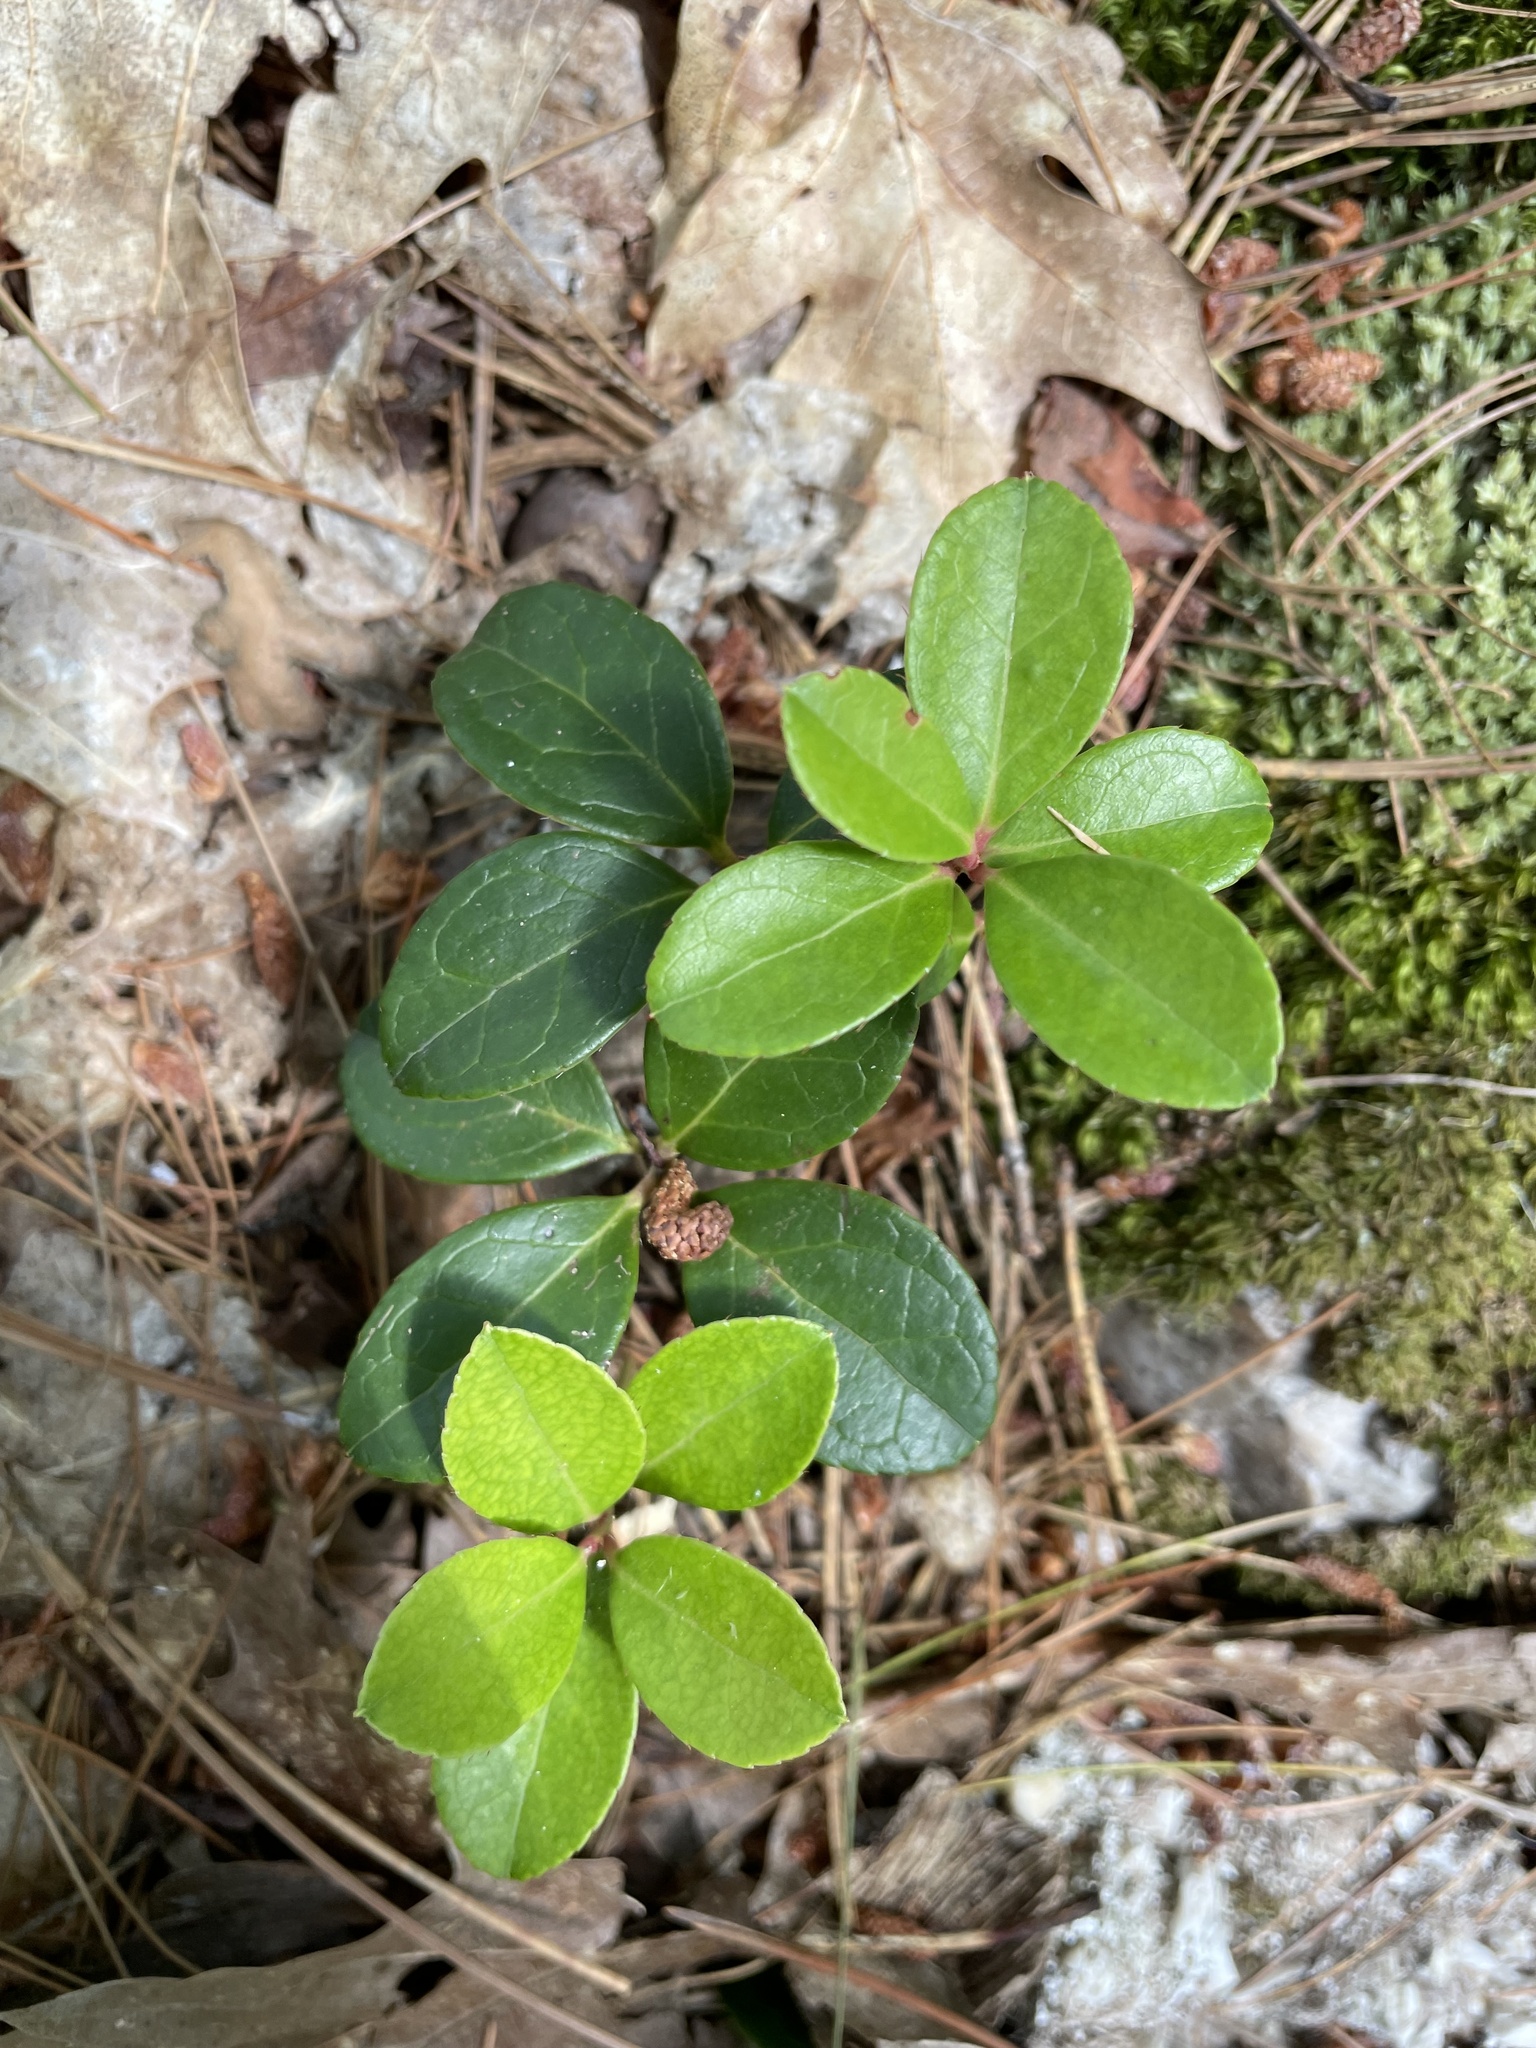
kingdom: Plantae
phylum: Tracheophyta
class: Magnoliopsida
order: Ericales
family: Ericaceae
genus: Gaultheria
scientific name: Gaultheria procumbens
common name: Checkerberry
